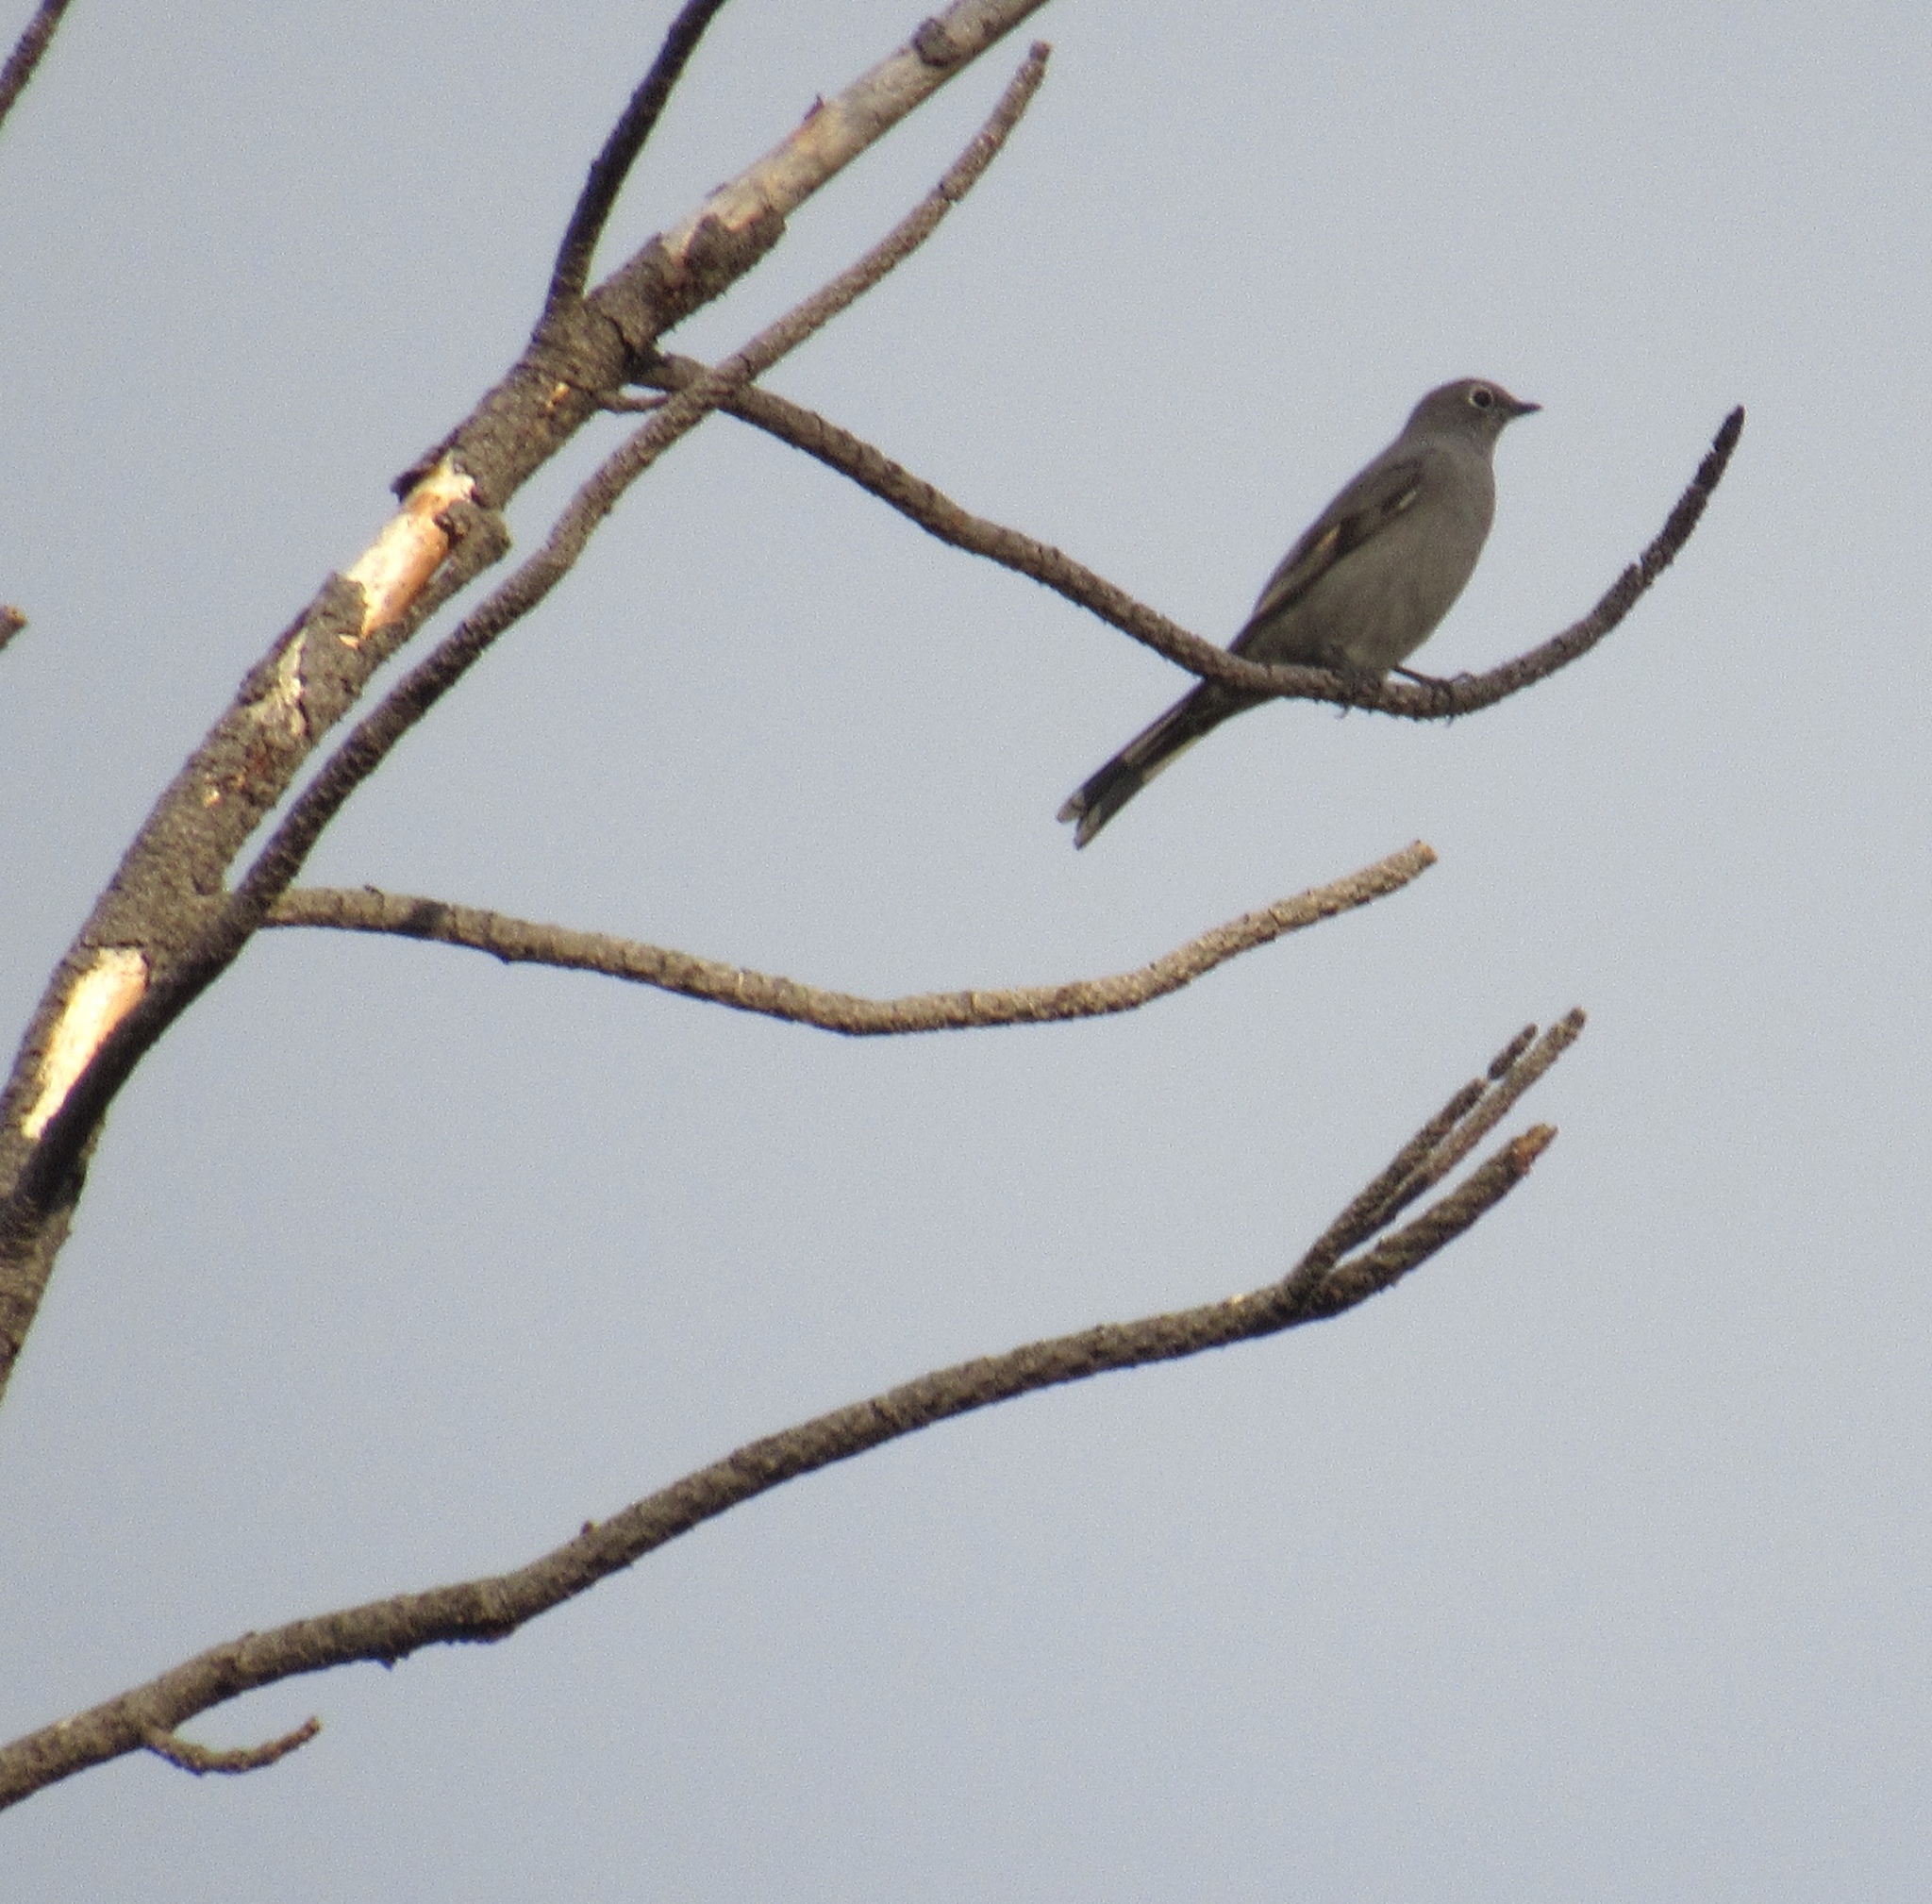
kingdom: Animalia
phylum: Chordata
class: Aves
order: Passeriformes
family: Turdidae
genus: Myadestes
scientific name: Myadestes townsendi
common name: Townsend's solitaire
